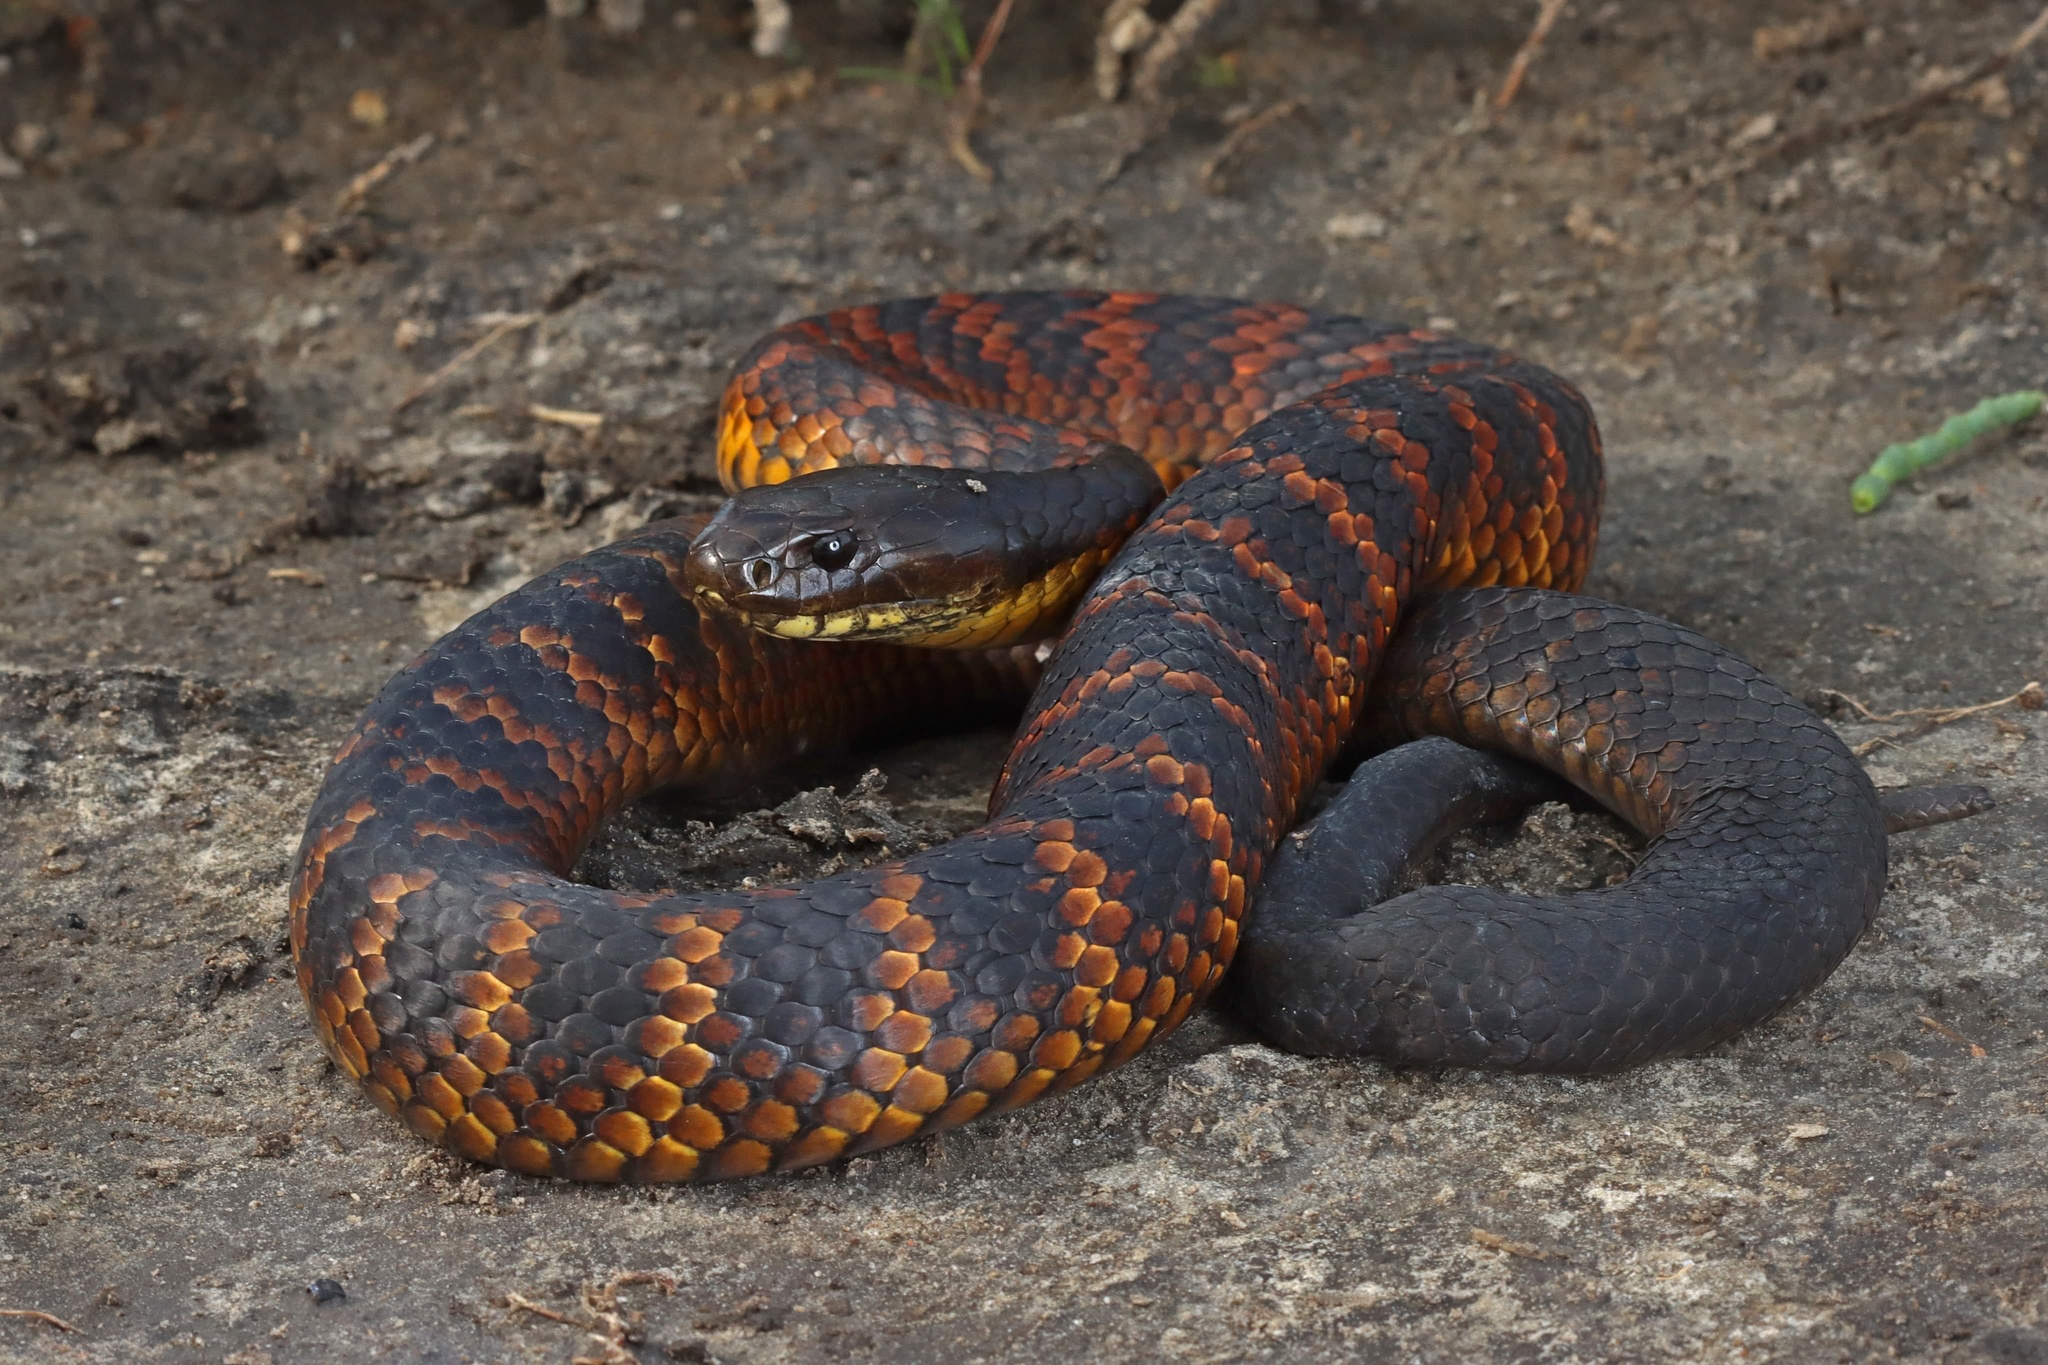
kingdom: Animalia
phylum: Chordata
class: Squamata
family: Elapidae
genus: Notechis
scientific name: Notechis scutatus
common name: Mainland tiger snake
